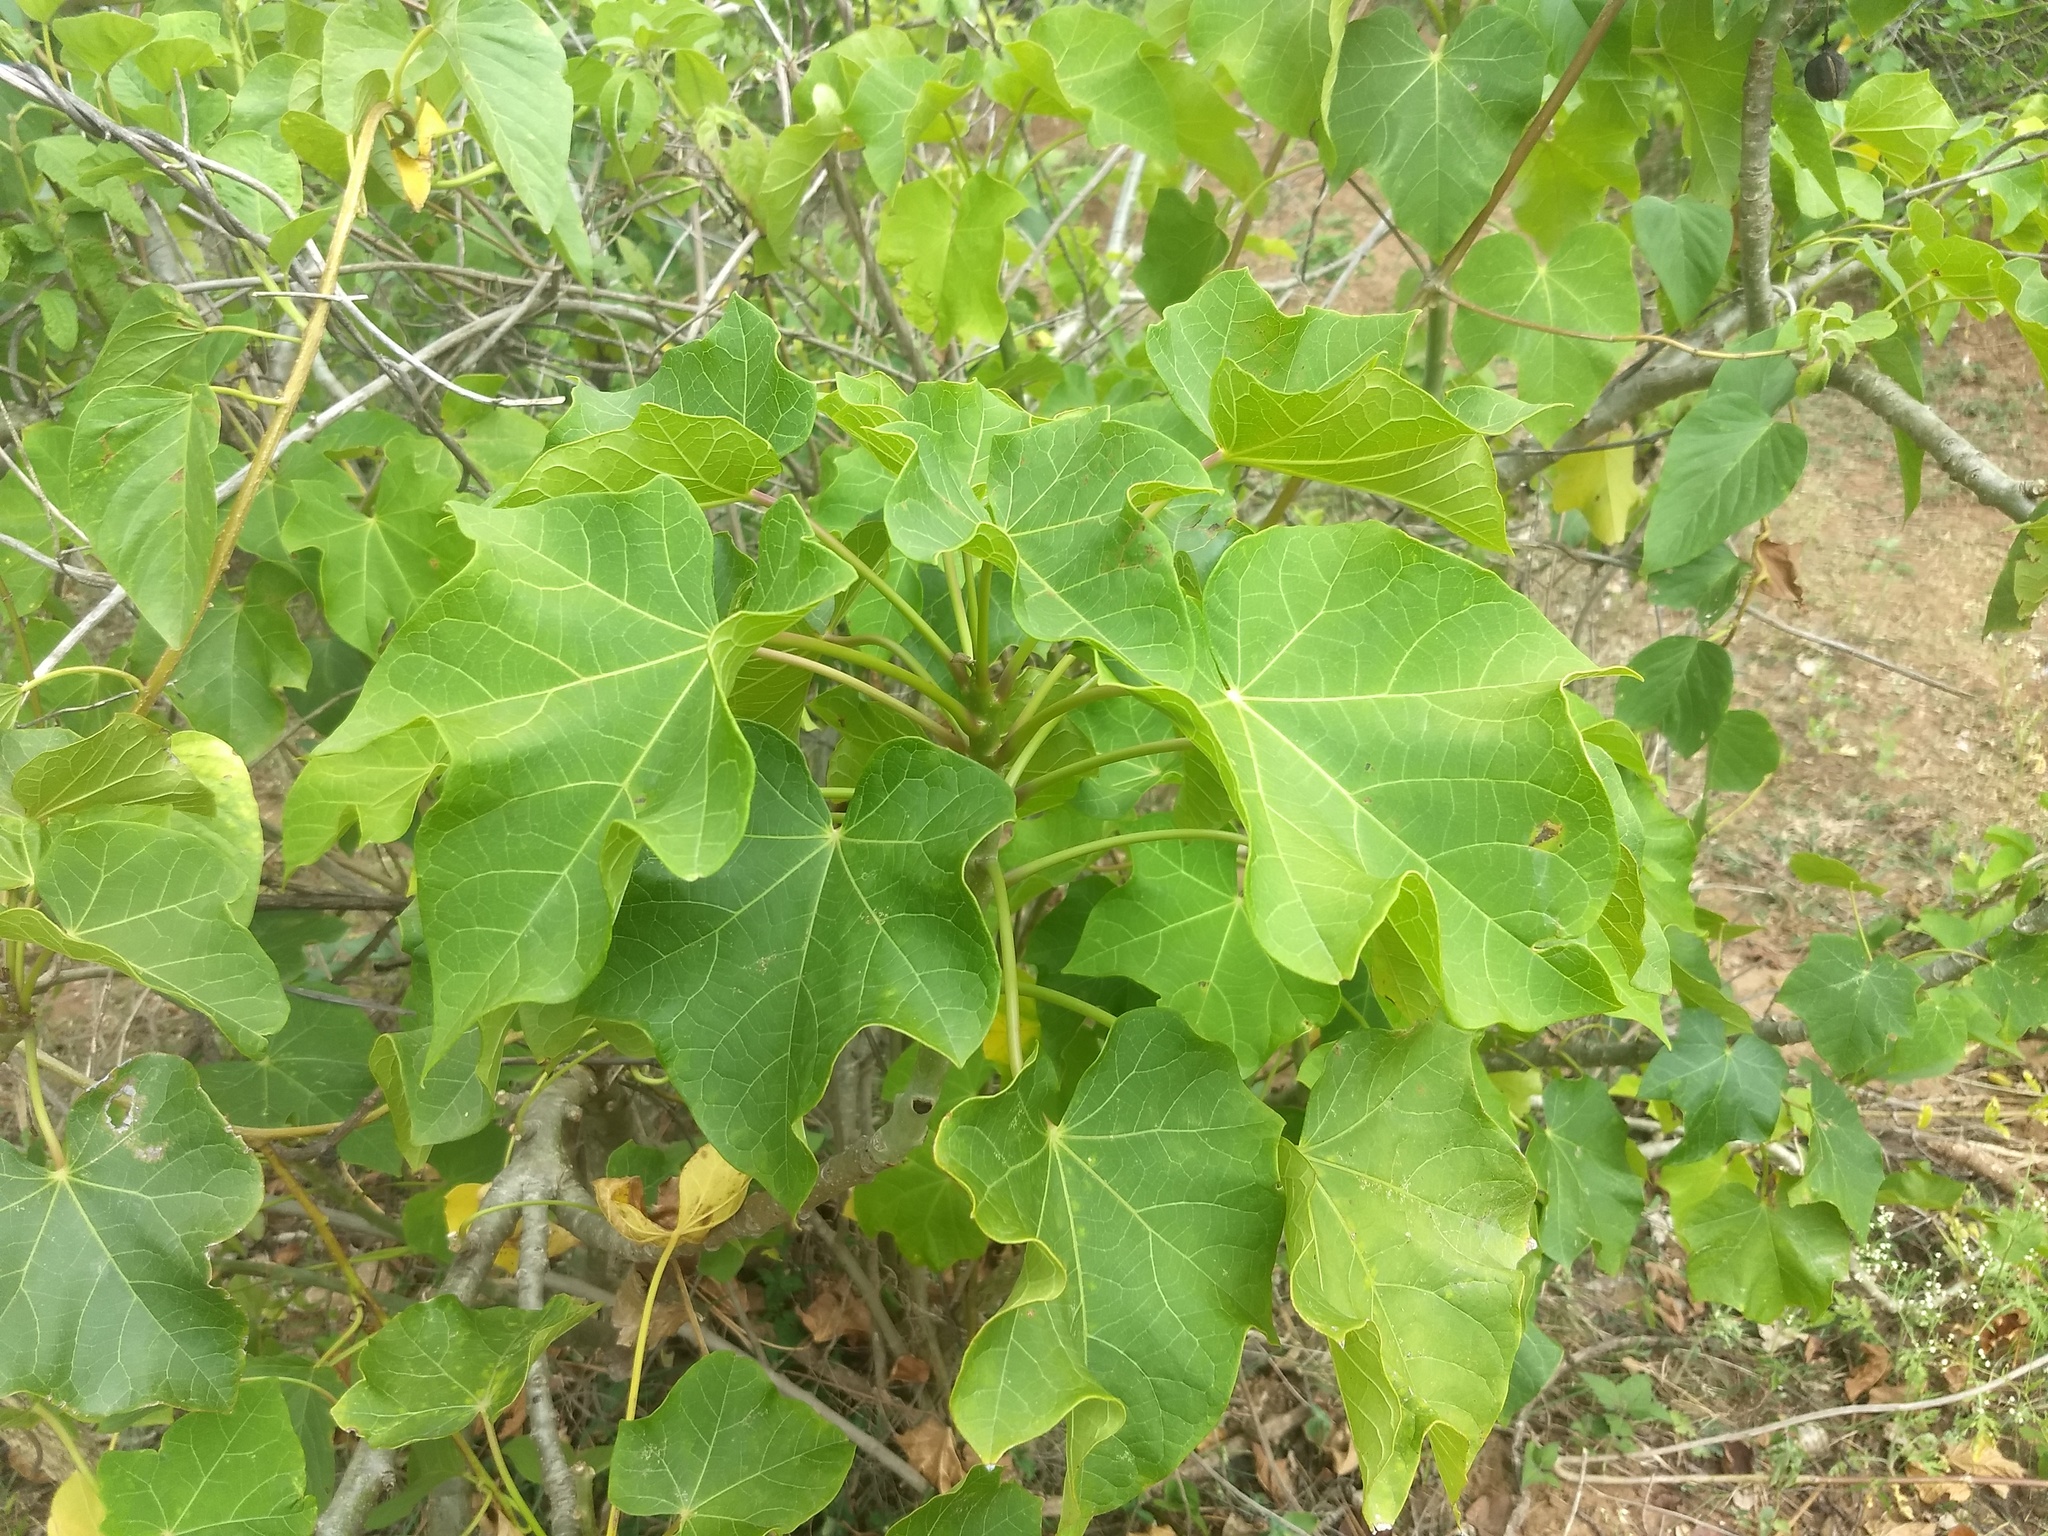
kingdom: Plantae
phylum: Tracheophyta
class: Magnoliopsida
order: Malpighiales
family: Euphorbiaceae
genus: Jatropha
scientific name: Jatropha curcas
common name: Barbados nut
